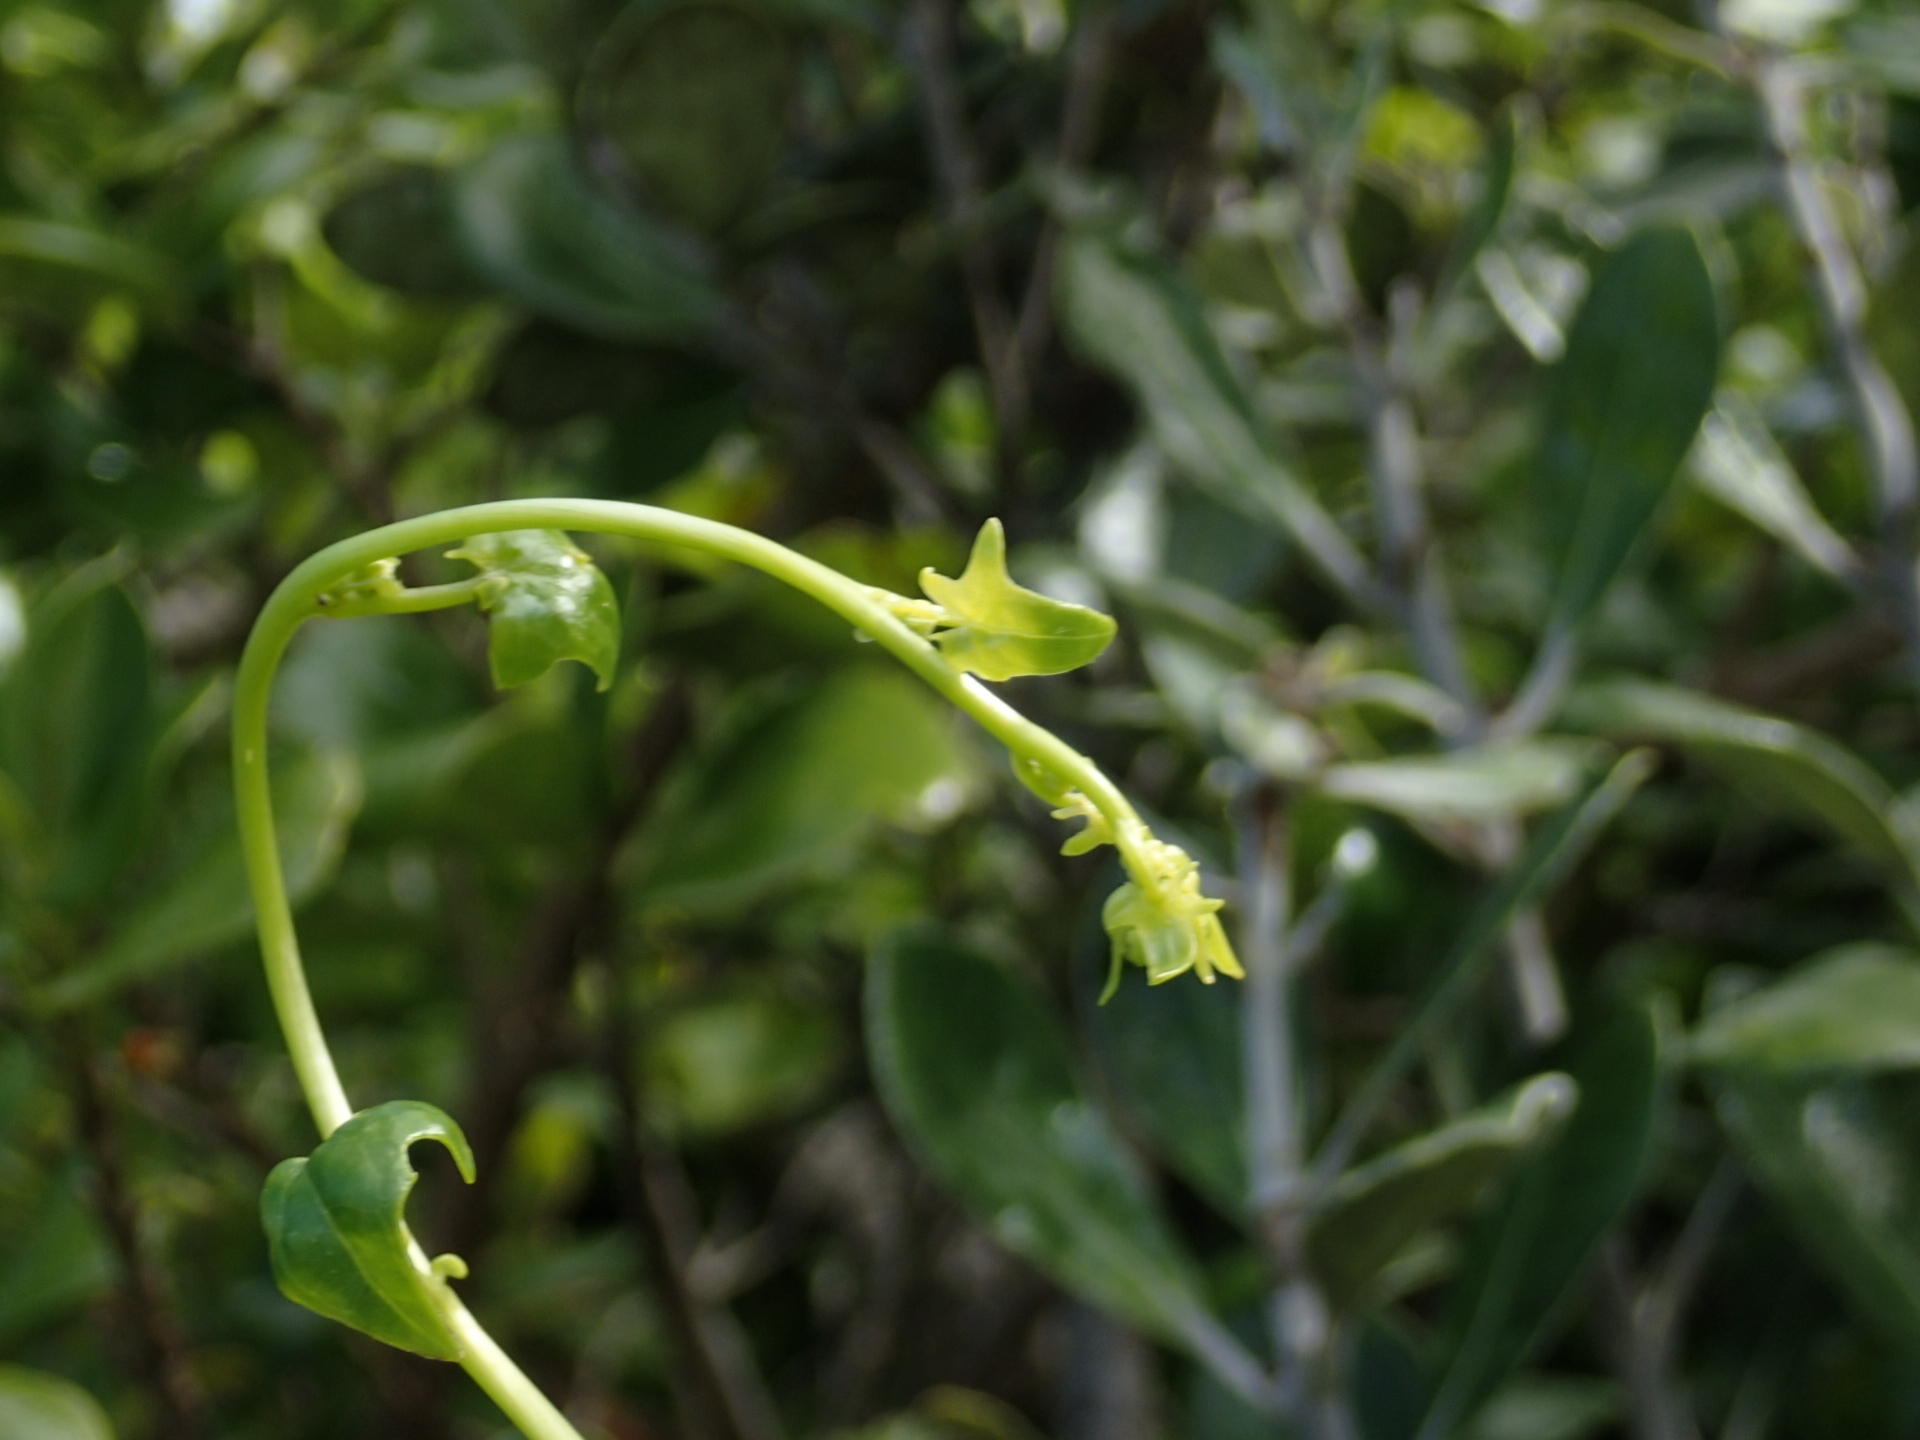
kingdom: Plantae
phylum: Tracheophyta
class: Magnoliopsida
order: Asterales
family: Asteraceae
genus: Delairea
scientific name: Delairea odorata
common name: Cape-ivy
